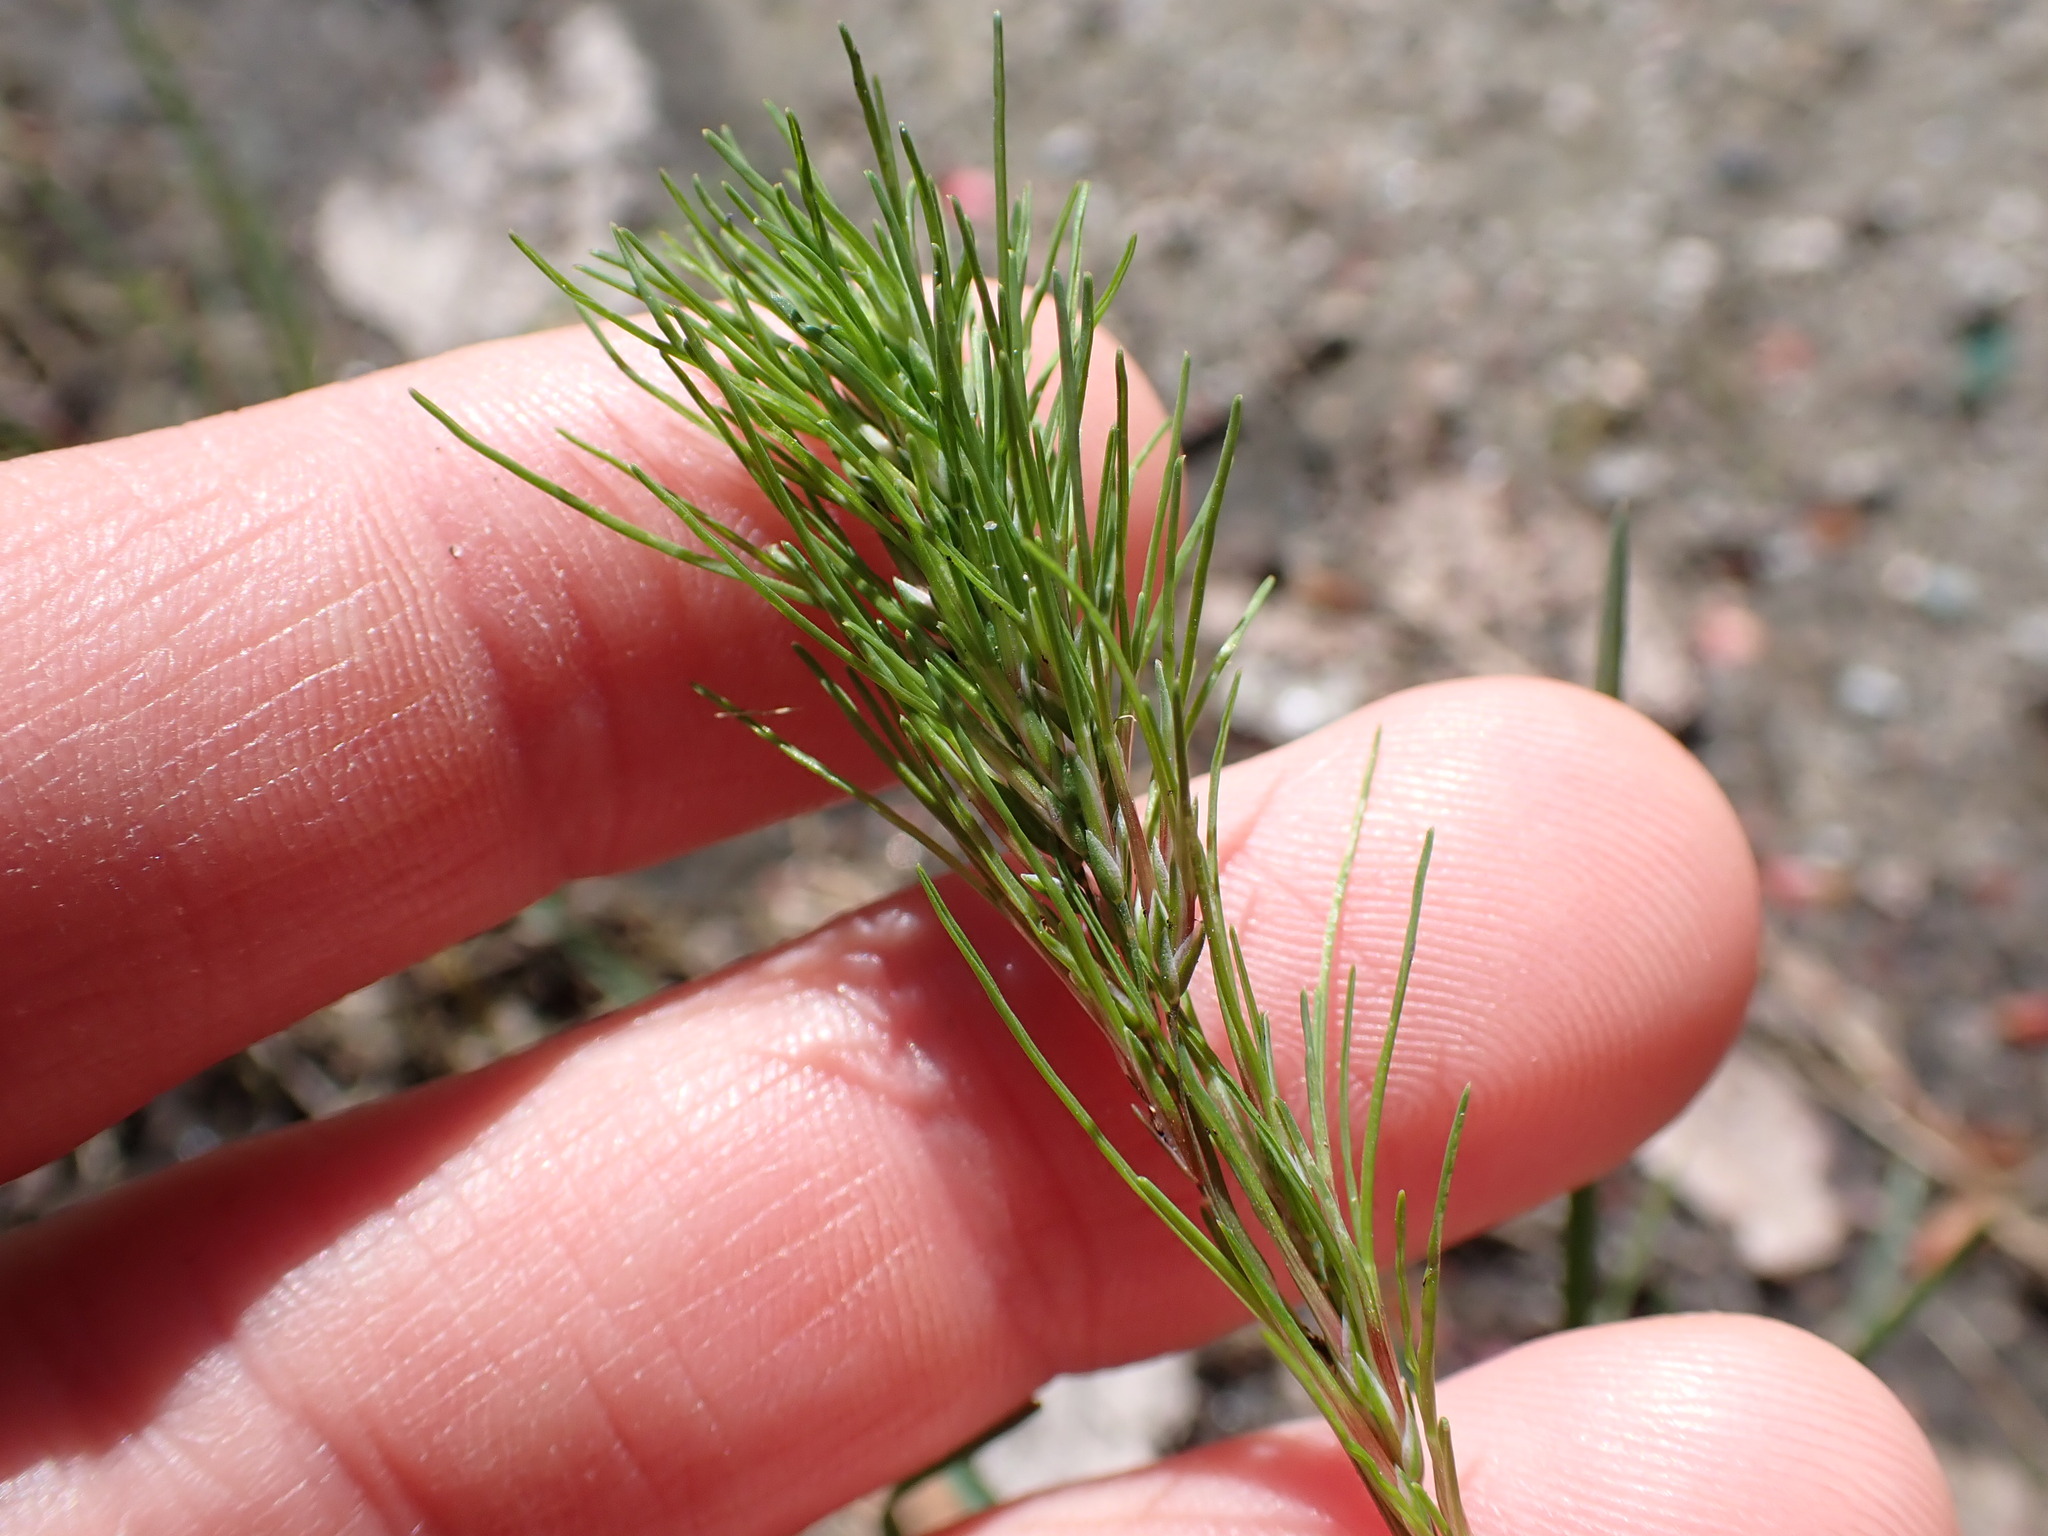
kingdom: Plantae
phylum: Tracheophyta
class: Liliopsida
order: Poales
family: Poaceae
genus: Poa
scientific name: Poa bulbosa
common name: Bulbous bluegrass
